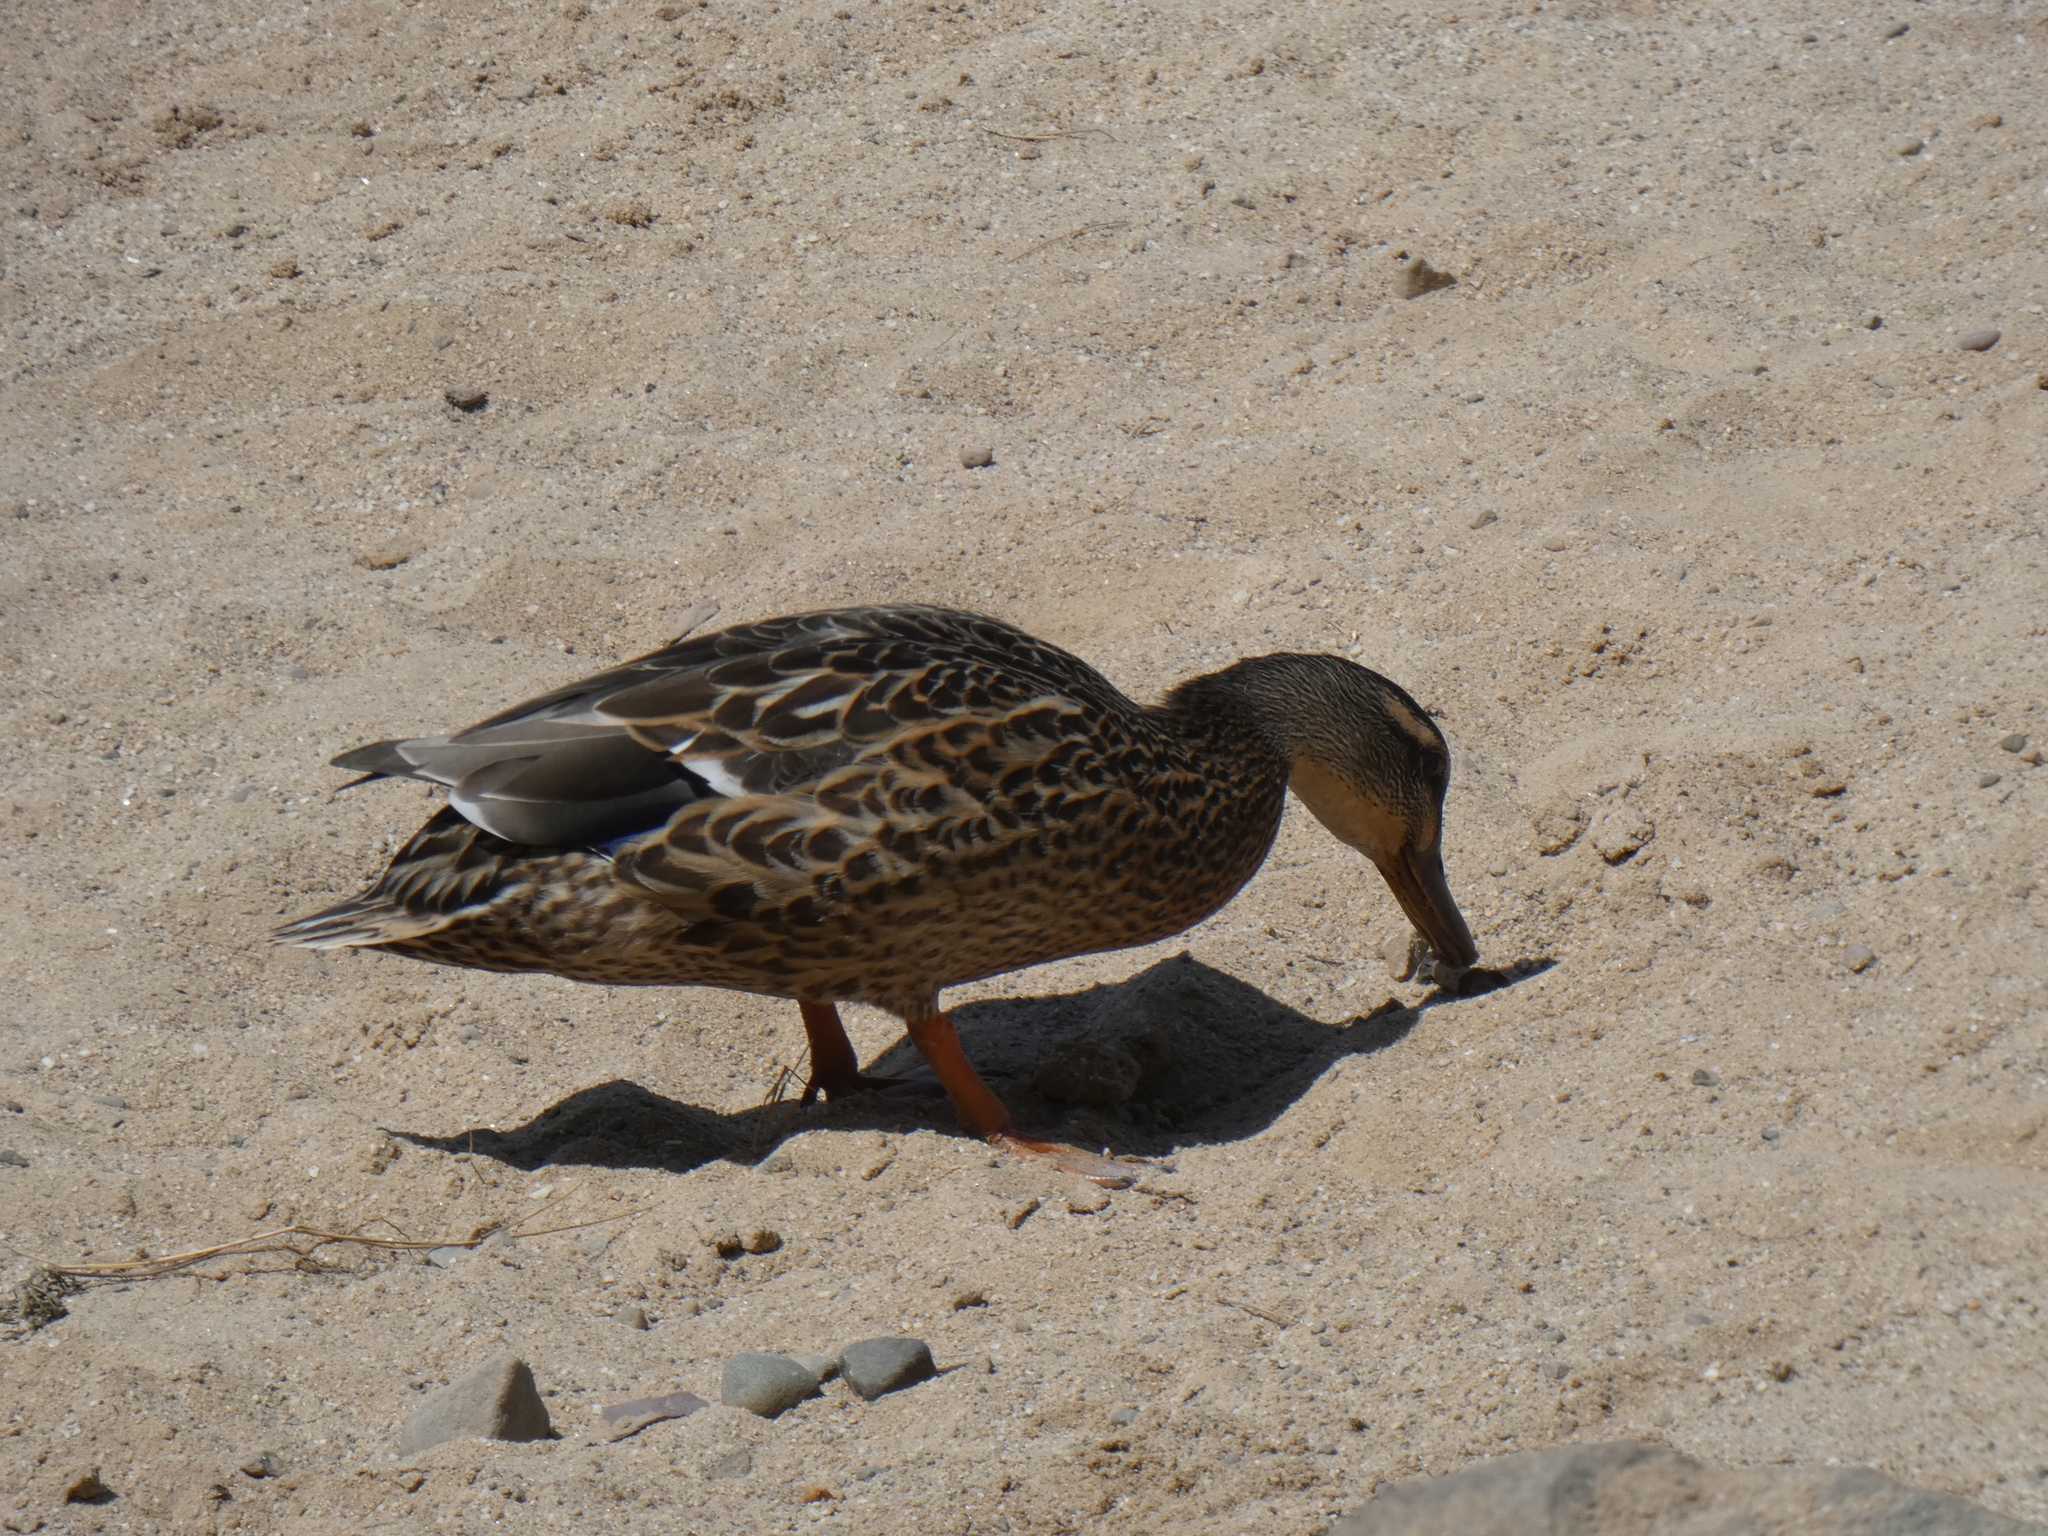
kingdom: Animalia
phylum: Chordata
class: Aves
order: Anseriformes
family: Anatidae
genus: Anas
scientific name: Anas platyrhynchos
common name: Mallard
